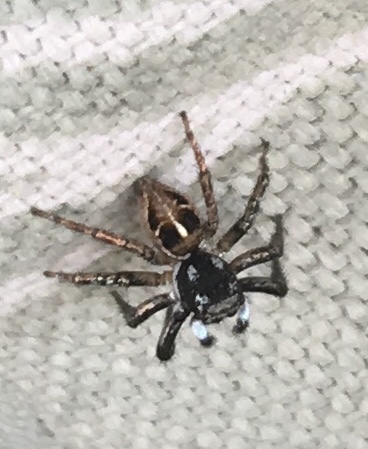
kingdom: Animalia
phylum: Arthropoda
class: Arachnida
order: Araneae
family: Salticidae
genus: Anasaitis
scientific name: Anasaitis canosa
